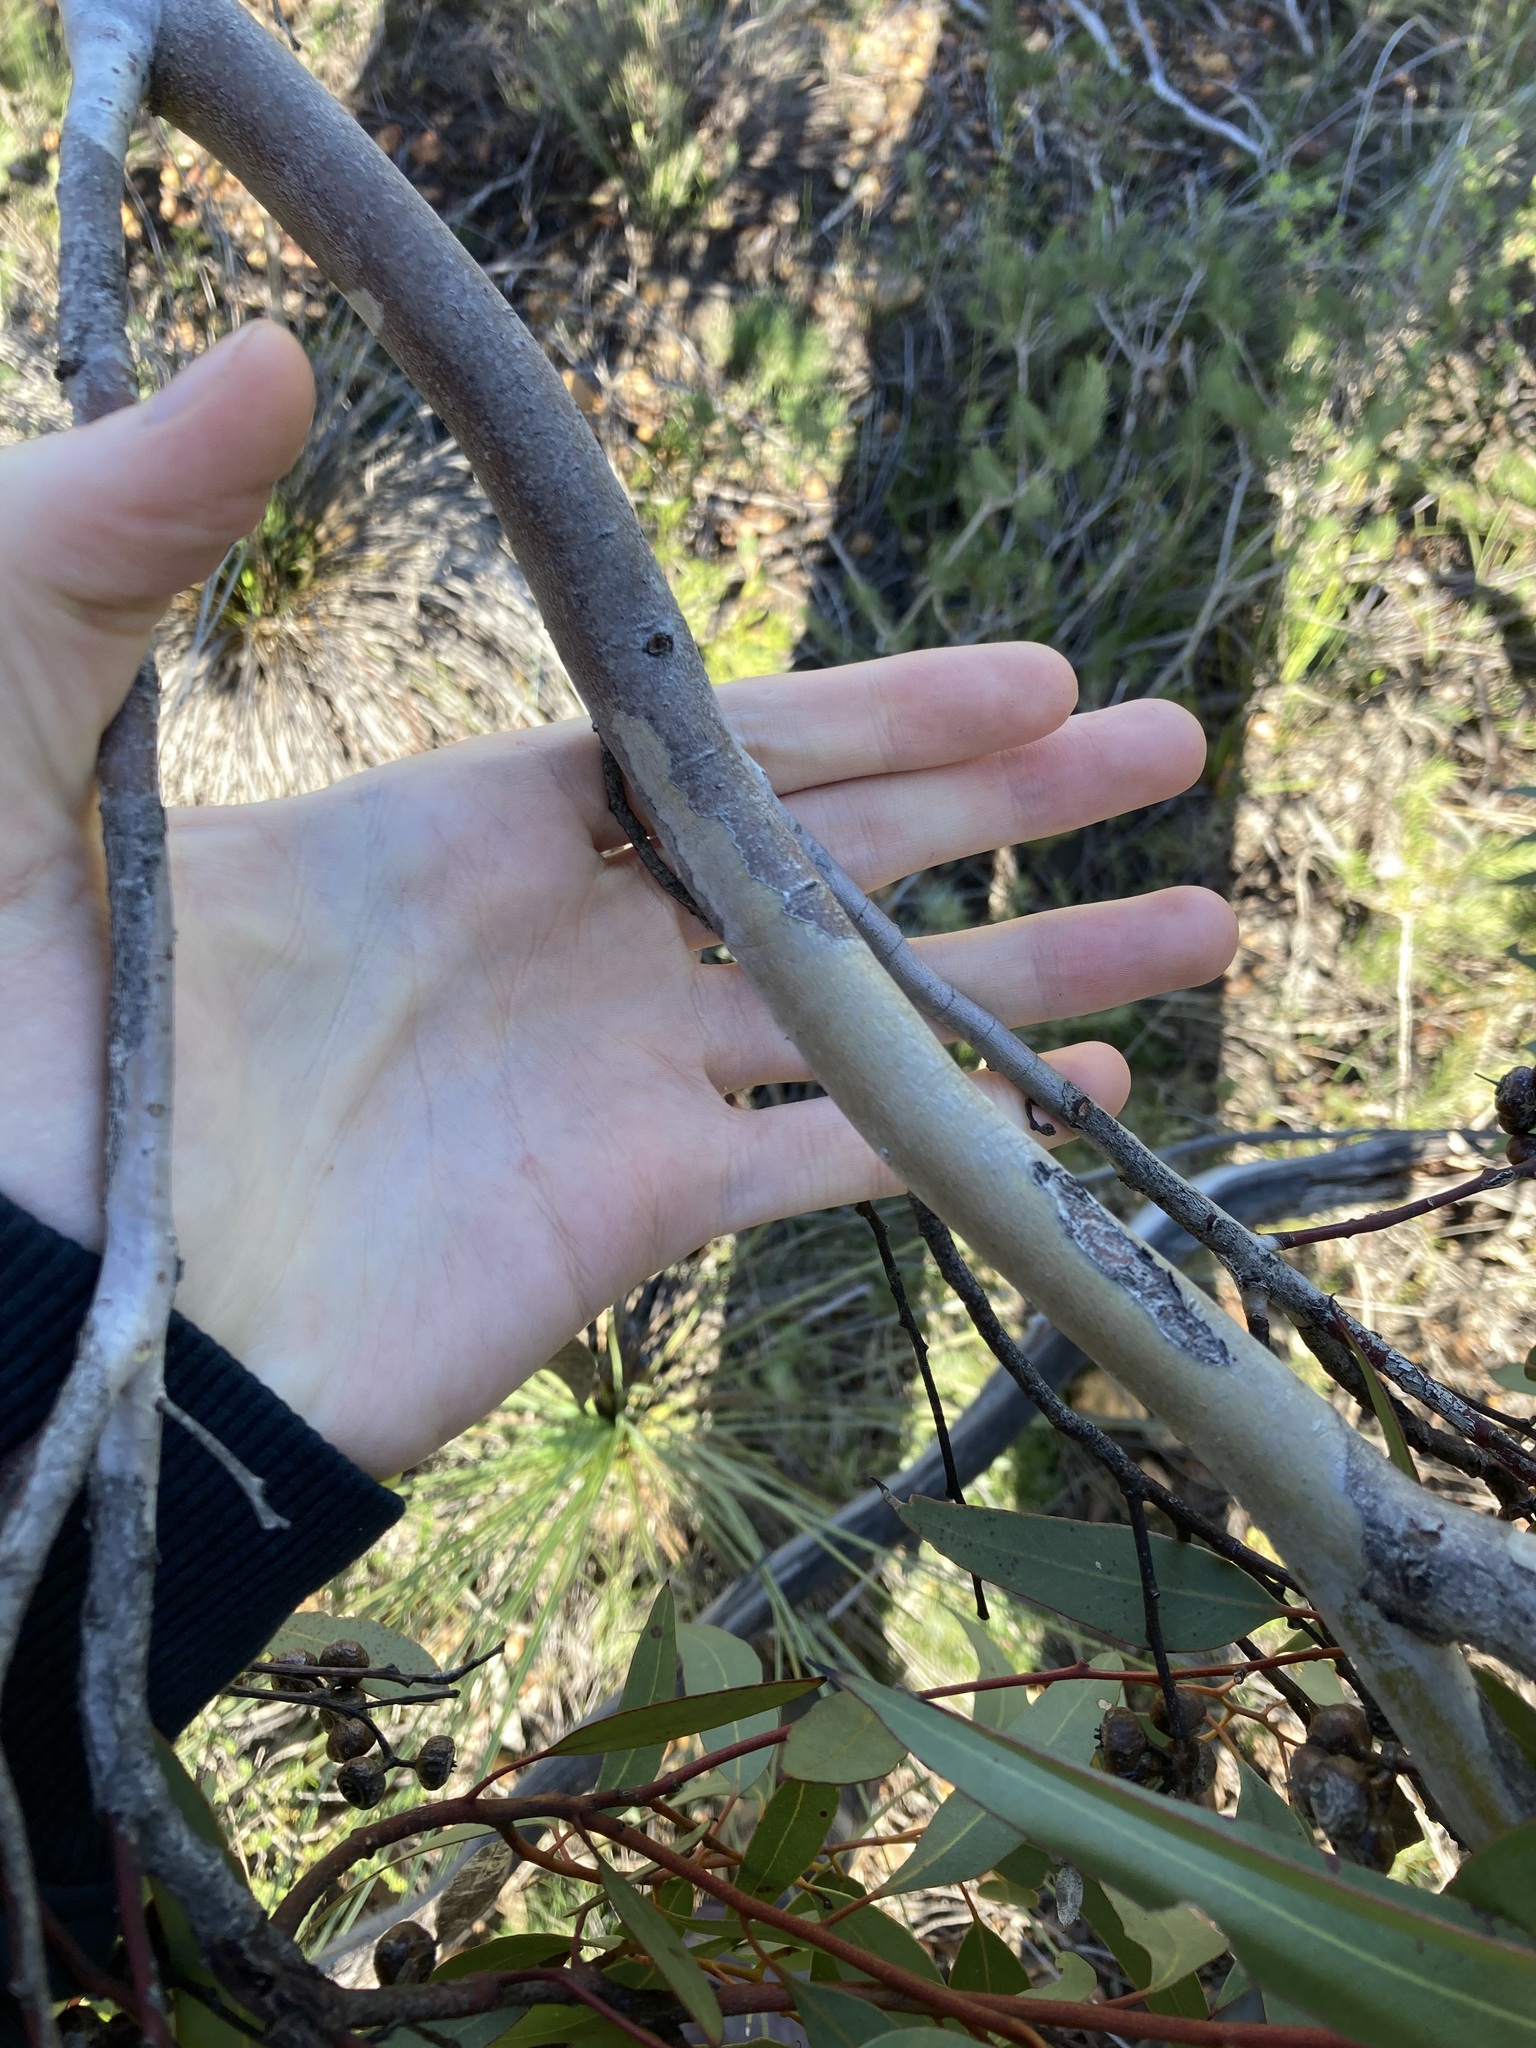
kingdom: Plantae
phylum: Tracheophyta
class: Magnoliopsida
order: Myrtales
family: Myrtaceae
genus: Eucalyptus
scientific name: Eucalyptus opimiflora
